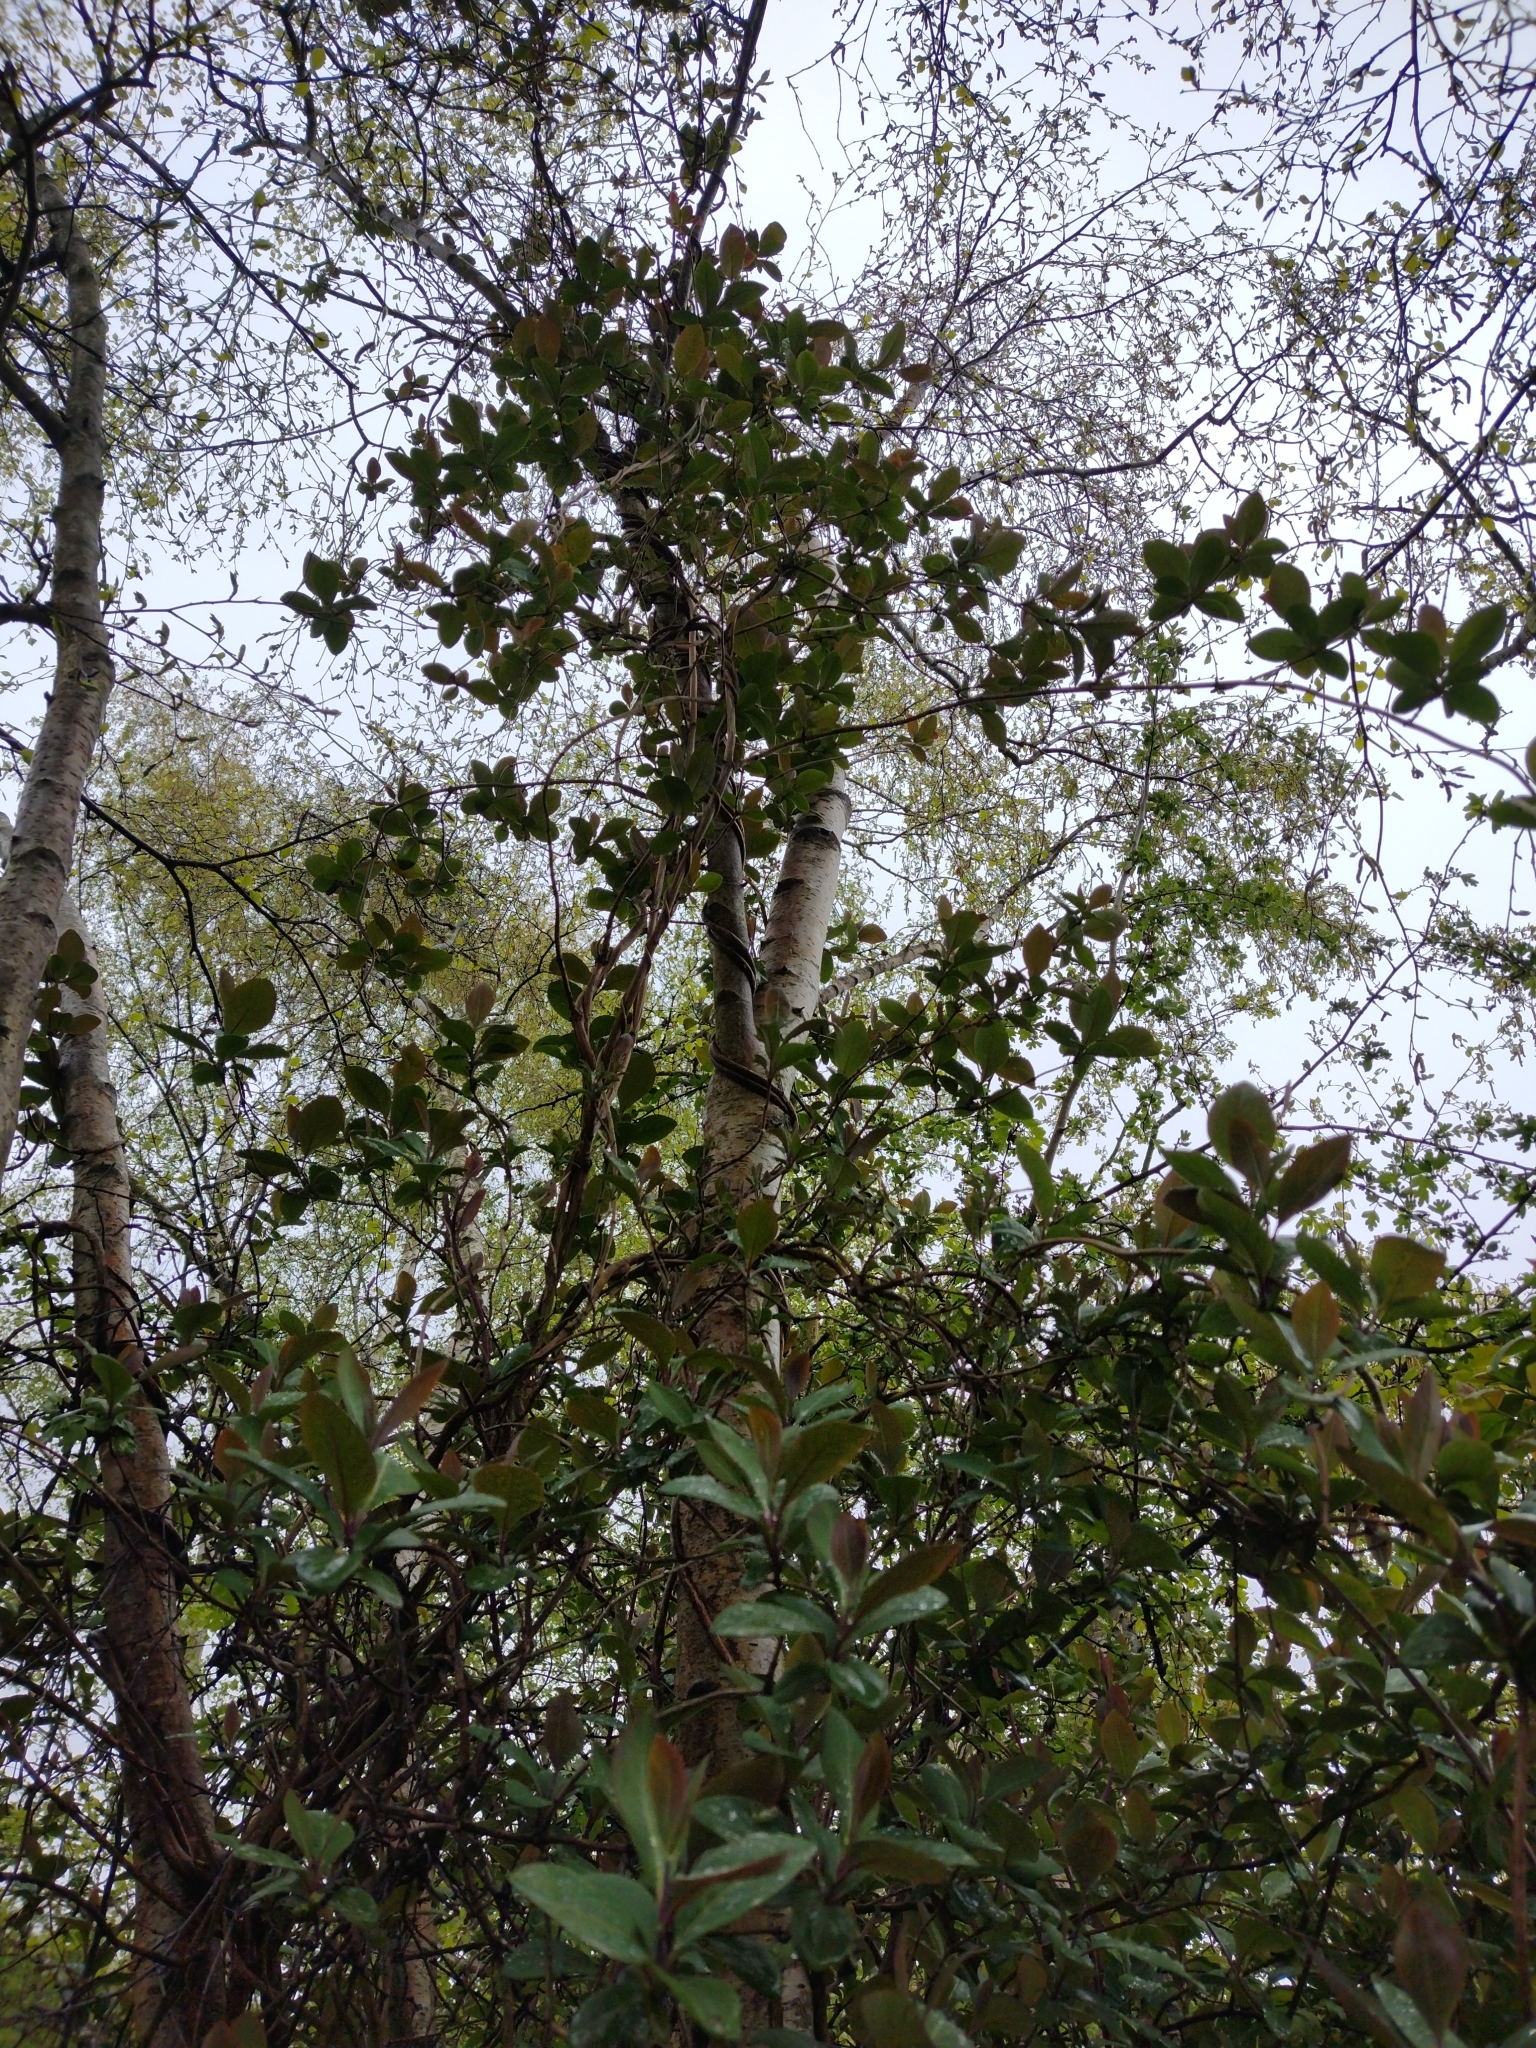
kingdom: Plantae
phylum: Tracheophyta
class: Magnoliopsida
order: Dipsacales
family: Caprifoliaceae
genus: Lonicera
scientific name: Lonicera periclymenum
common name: European honeysuckle
